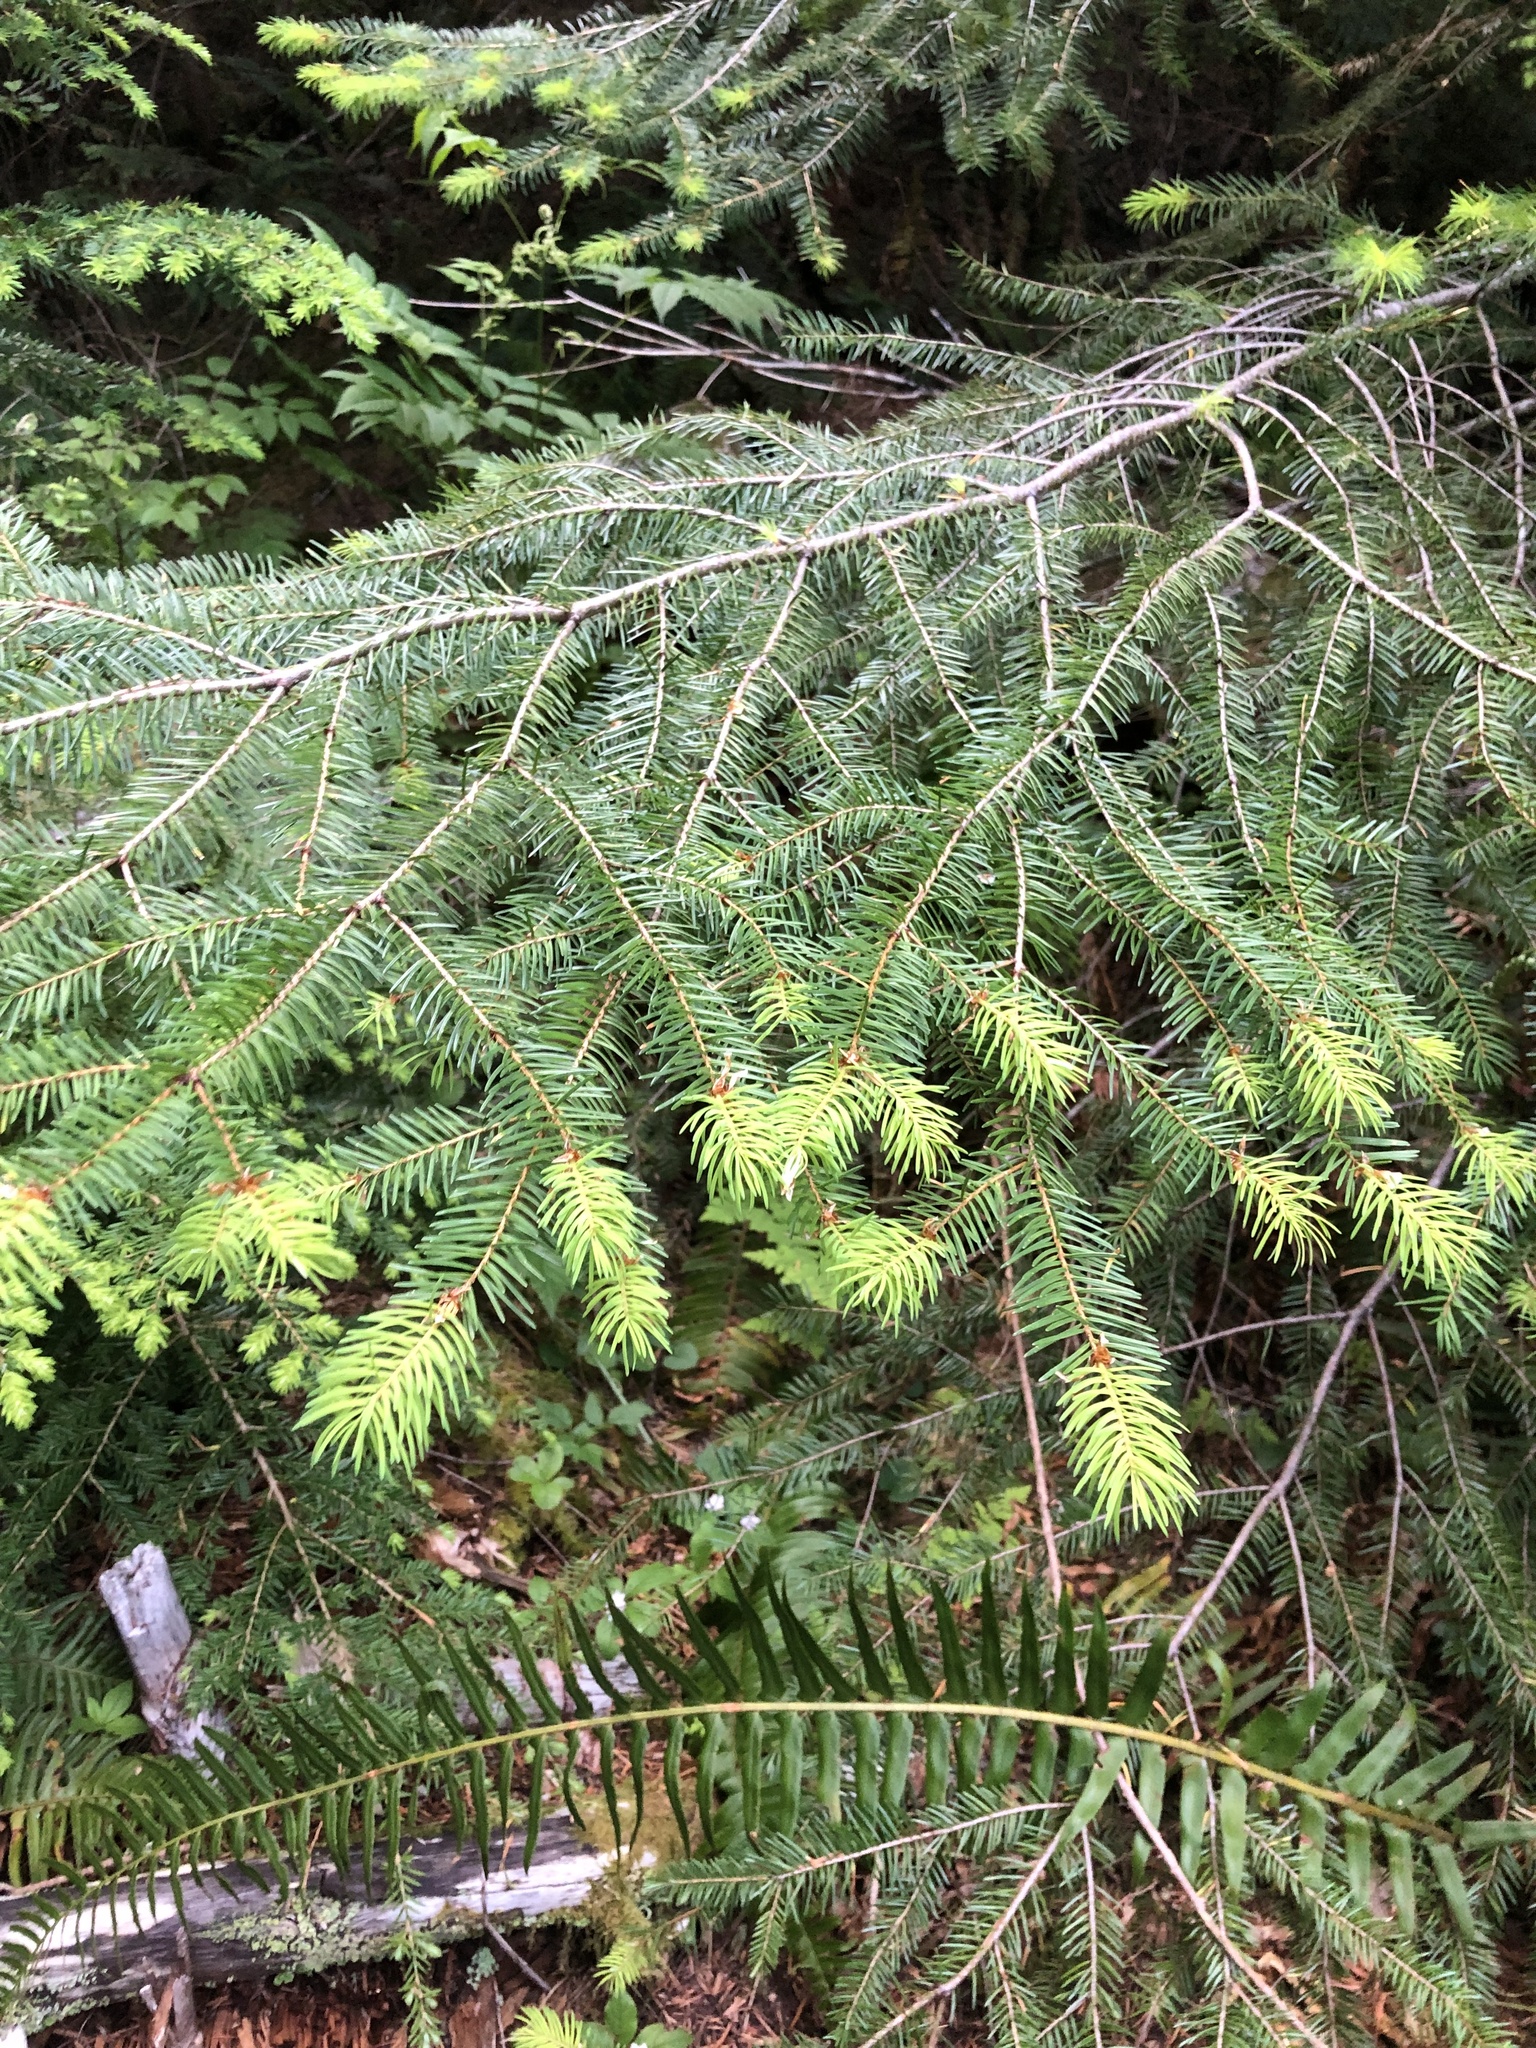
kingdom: Plantae
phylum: Tracheophyta
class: Pinopsida
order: Pinales
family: Pinaceae
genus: Pseudotsuga
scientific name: Pseudotsuga menziesii
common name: Douglas fir
